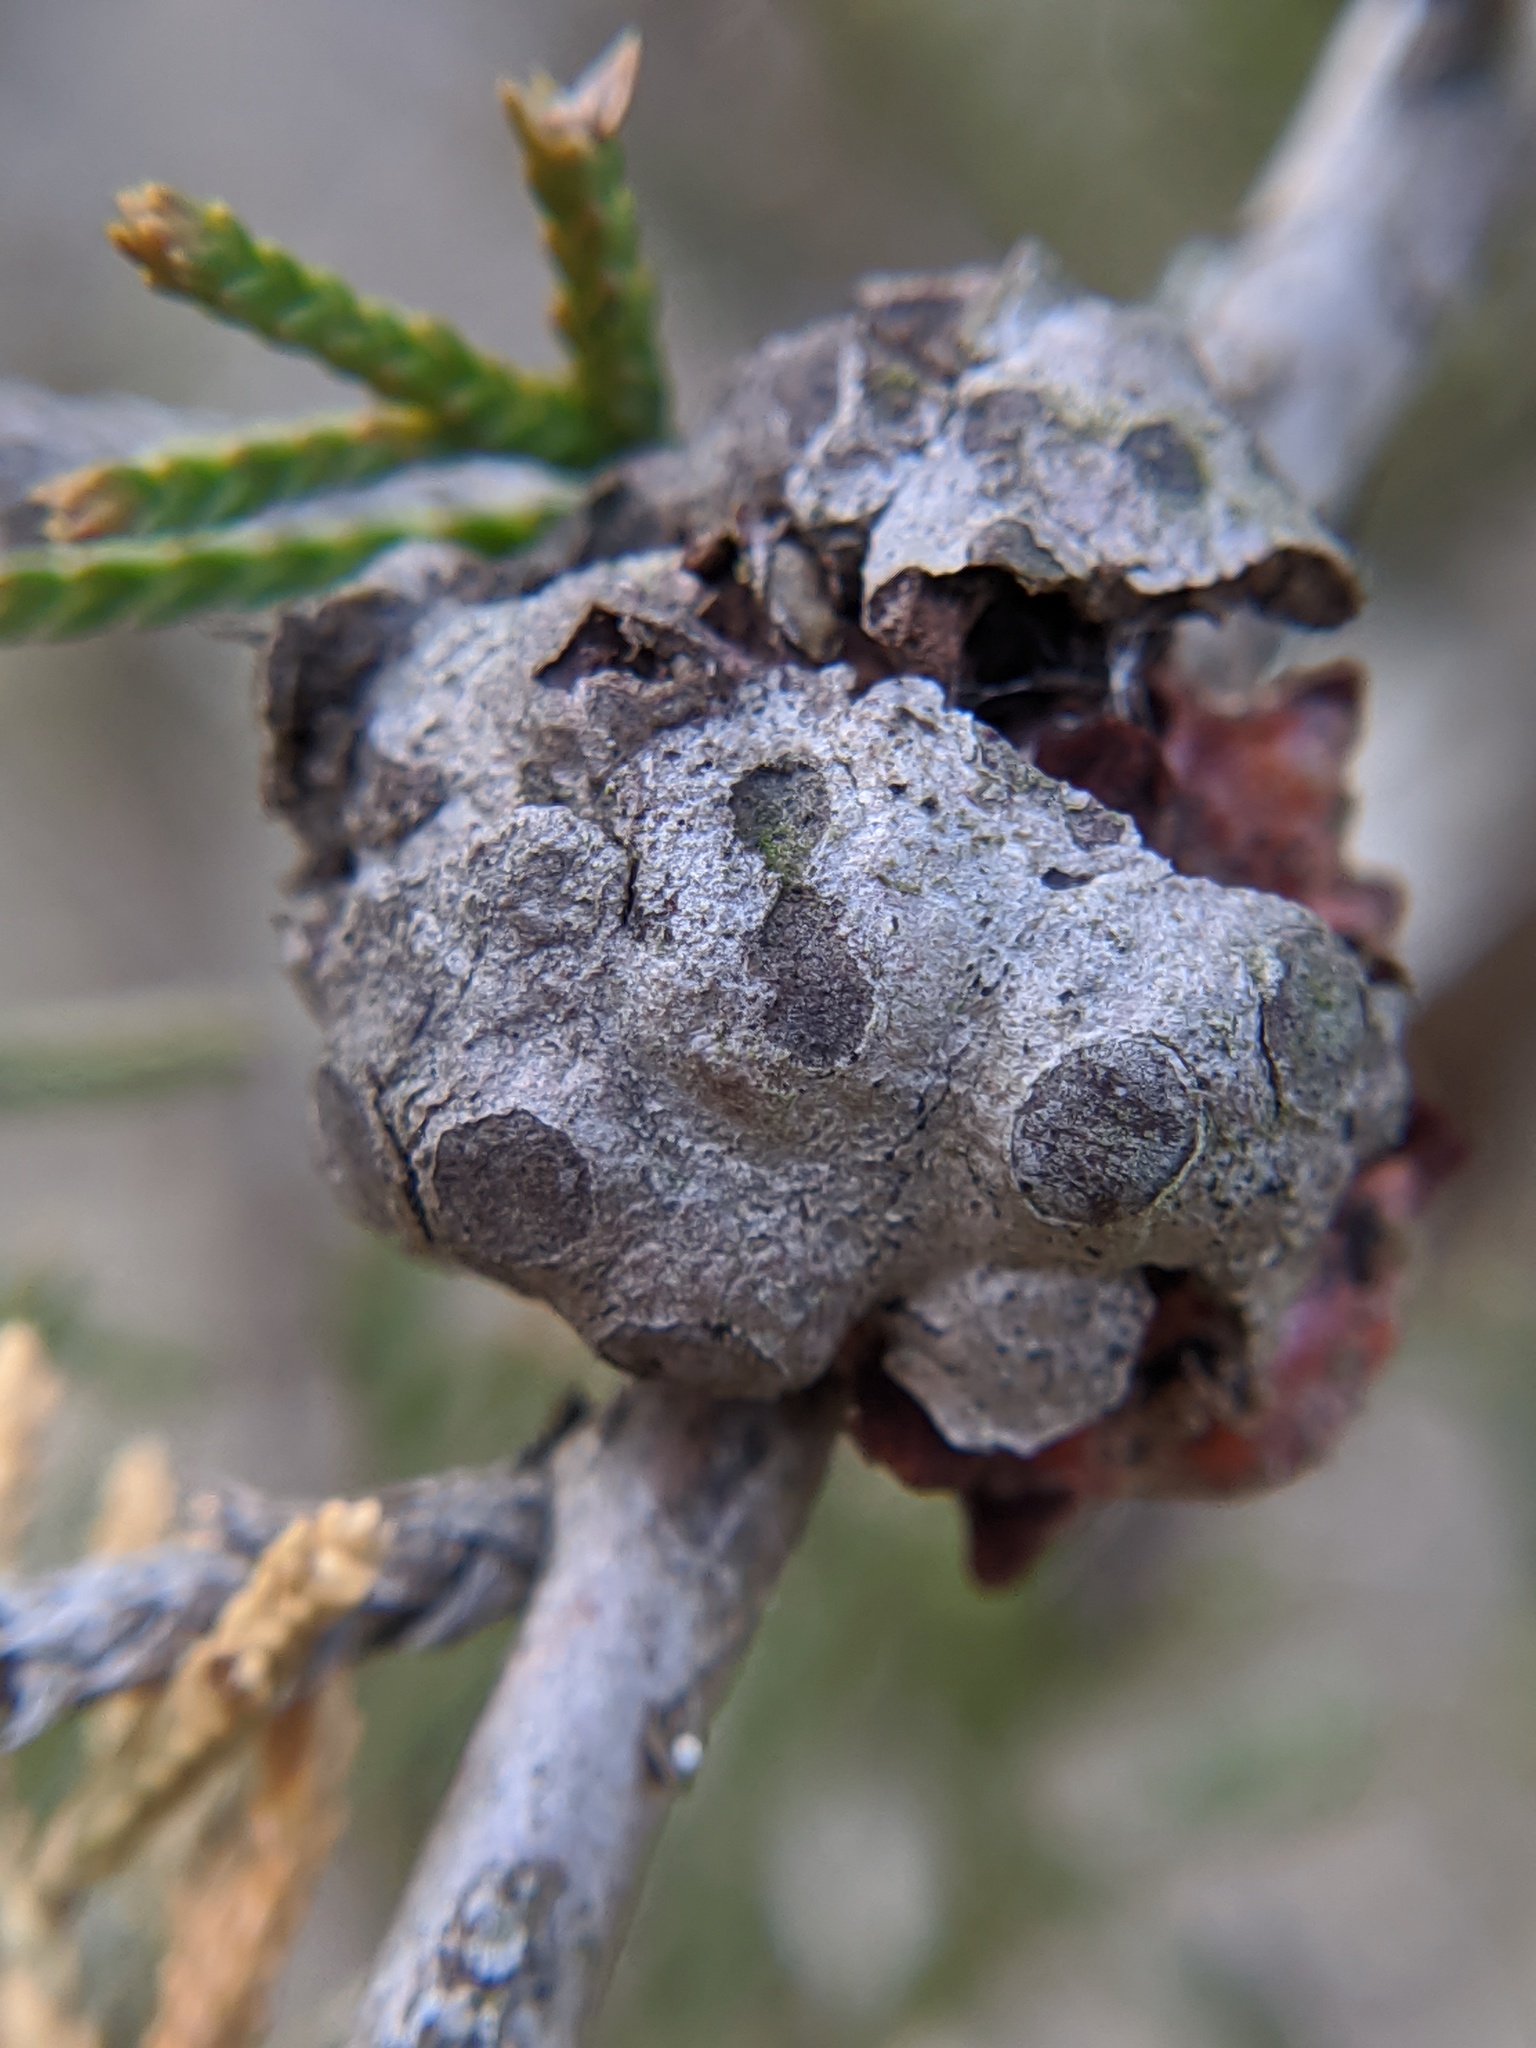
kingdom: Fungi
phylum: Basidiomycota
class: Pucciniomycetes
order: Pucciniales
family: Gymnosporangiaceae
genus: Gymnosporangium
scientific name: Gymnosporangium juniperi-virginianae
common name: Juniper-apple rust
